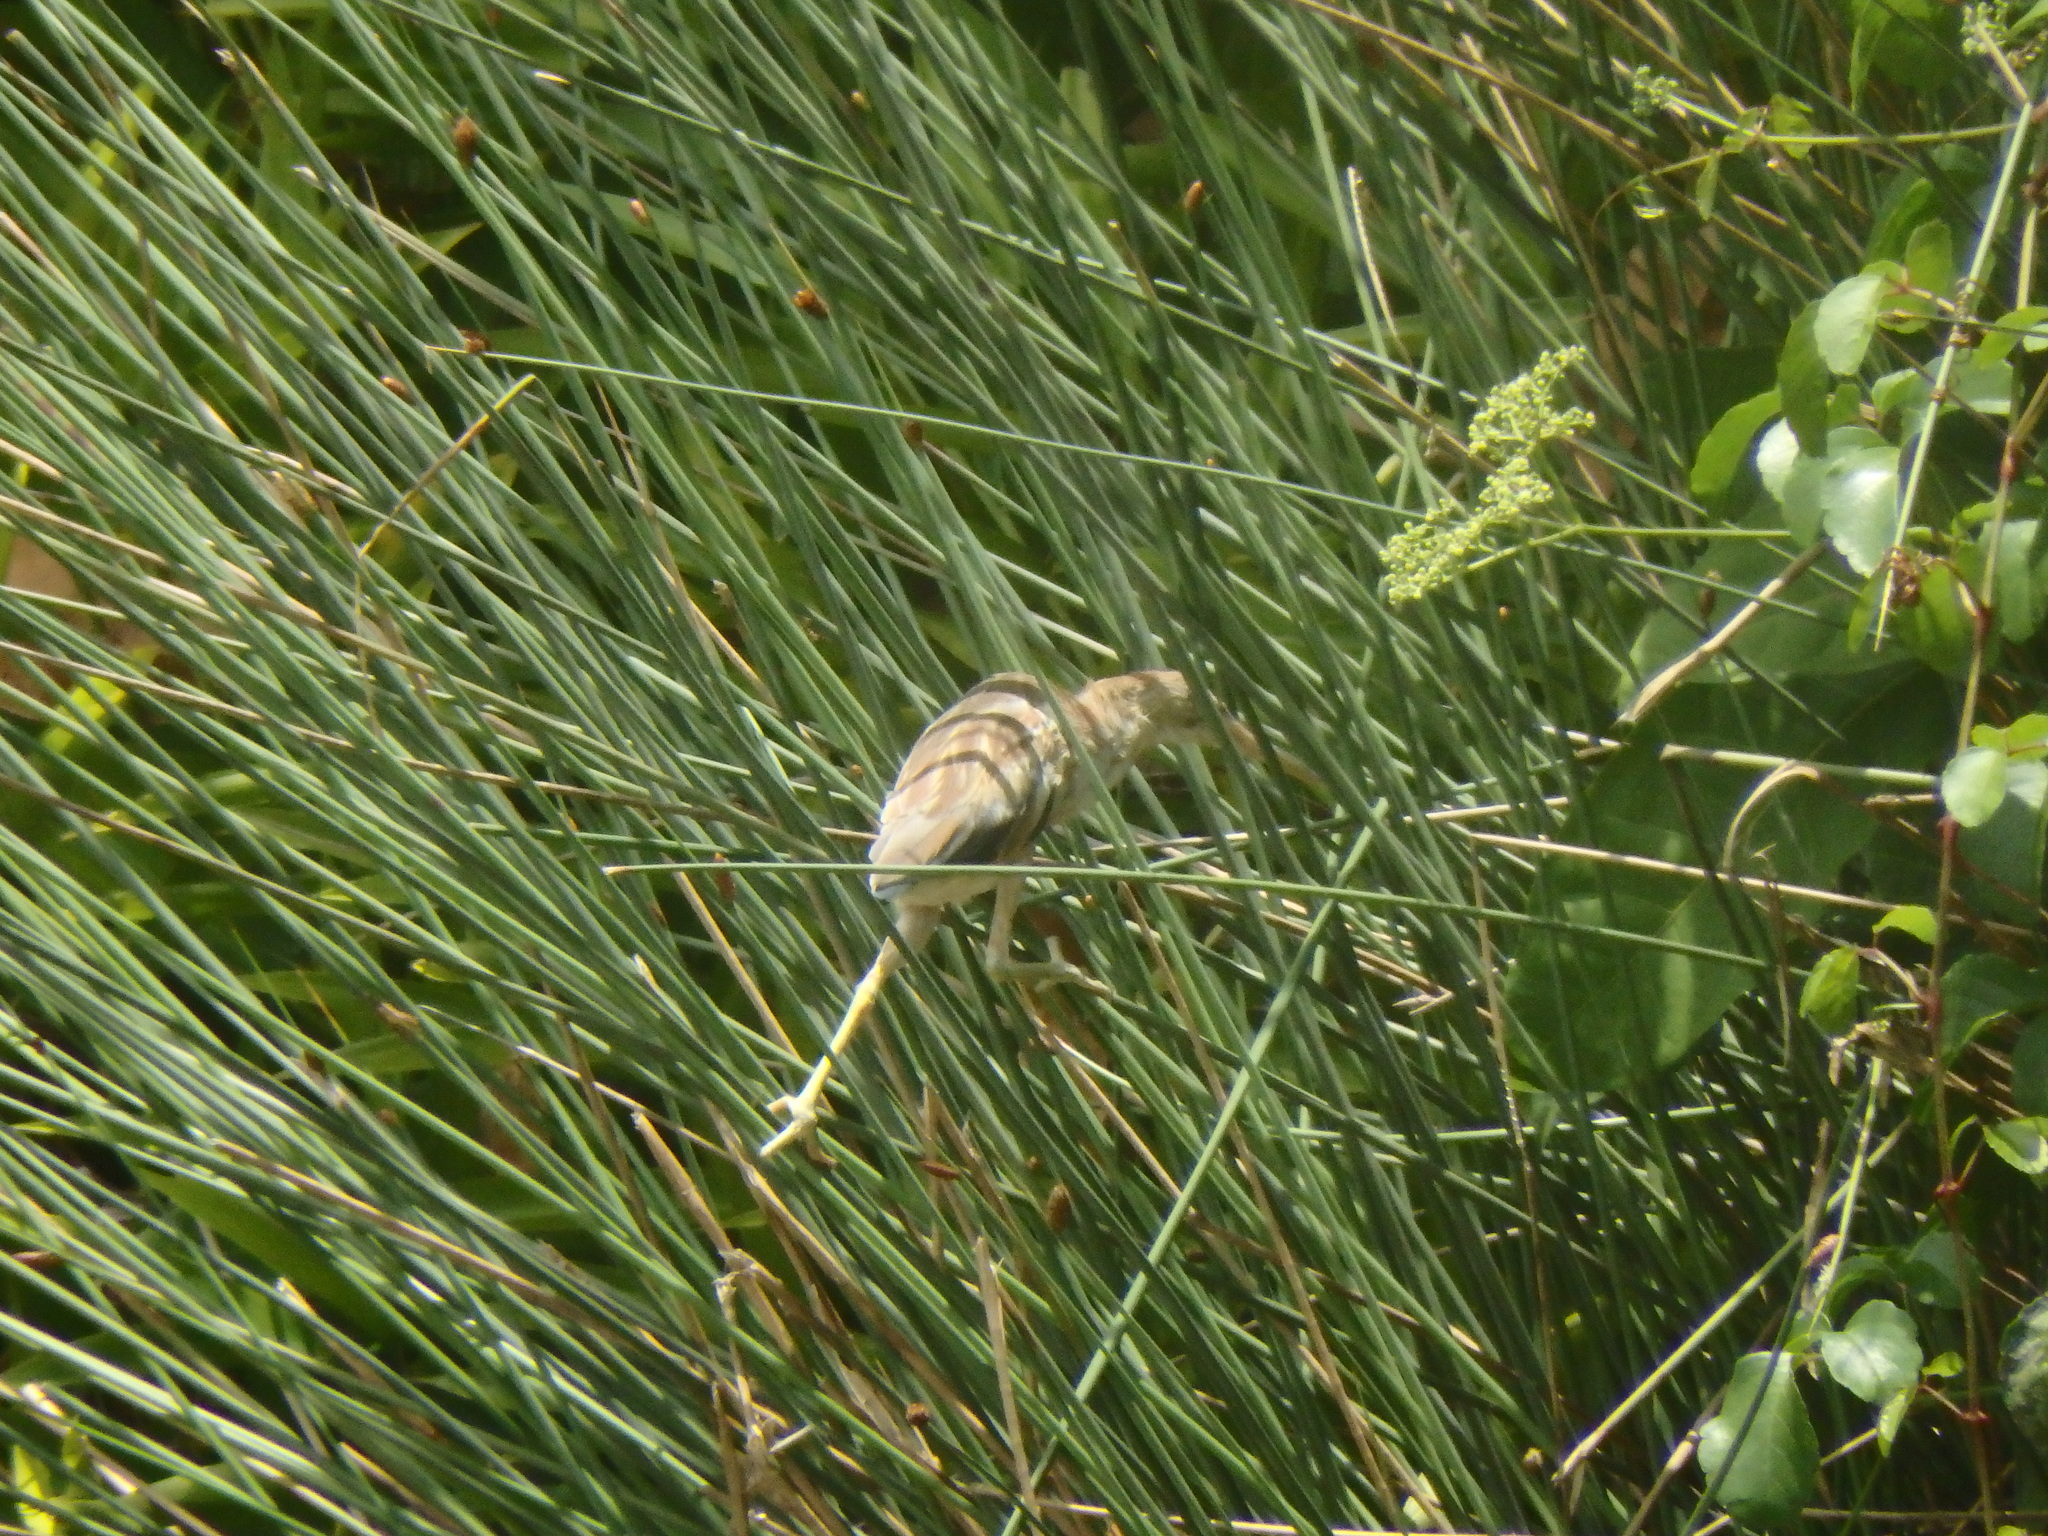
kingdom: Animalia
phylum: Chordata
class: Aves
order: Pelecaniformes
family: Ardeidae
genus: Ixobrychus
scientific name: Ixobrychus sinensis
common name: Yellow bittern
